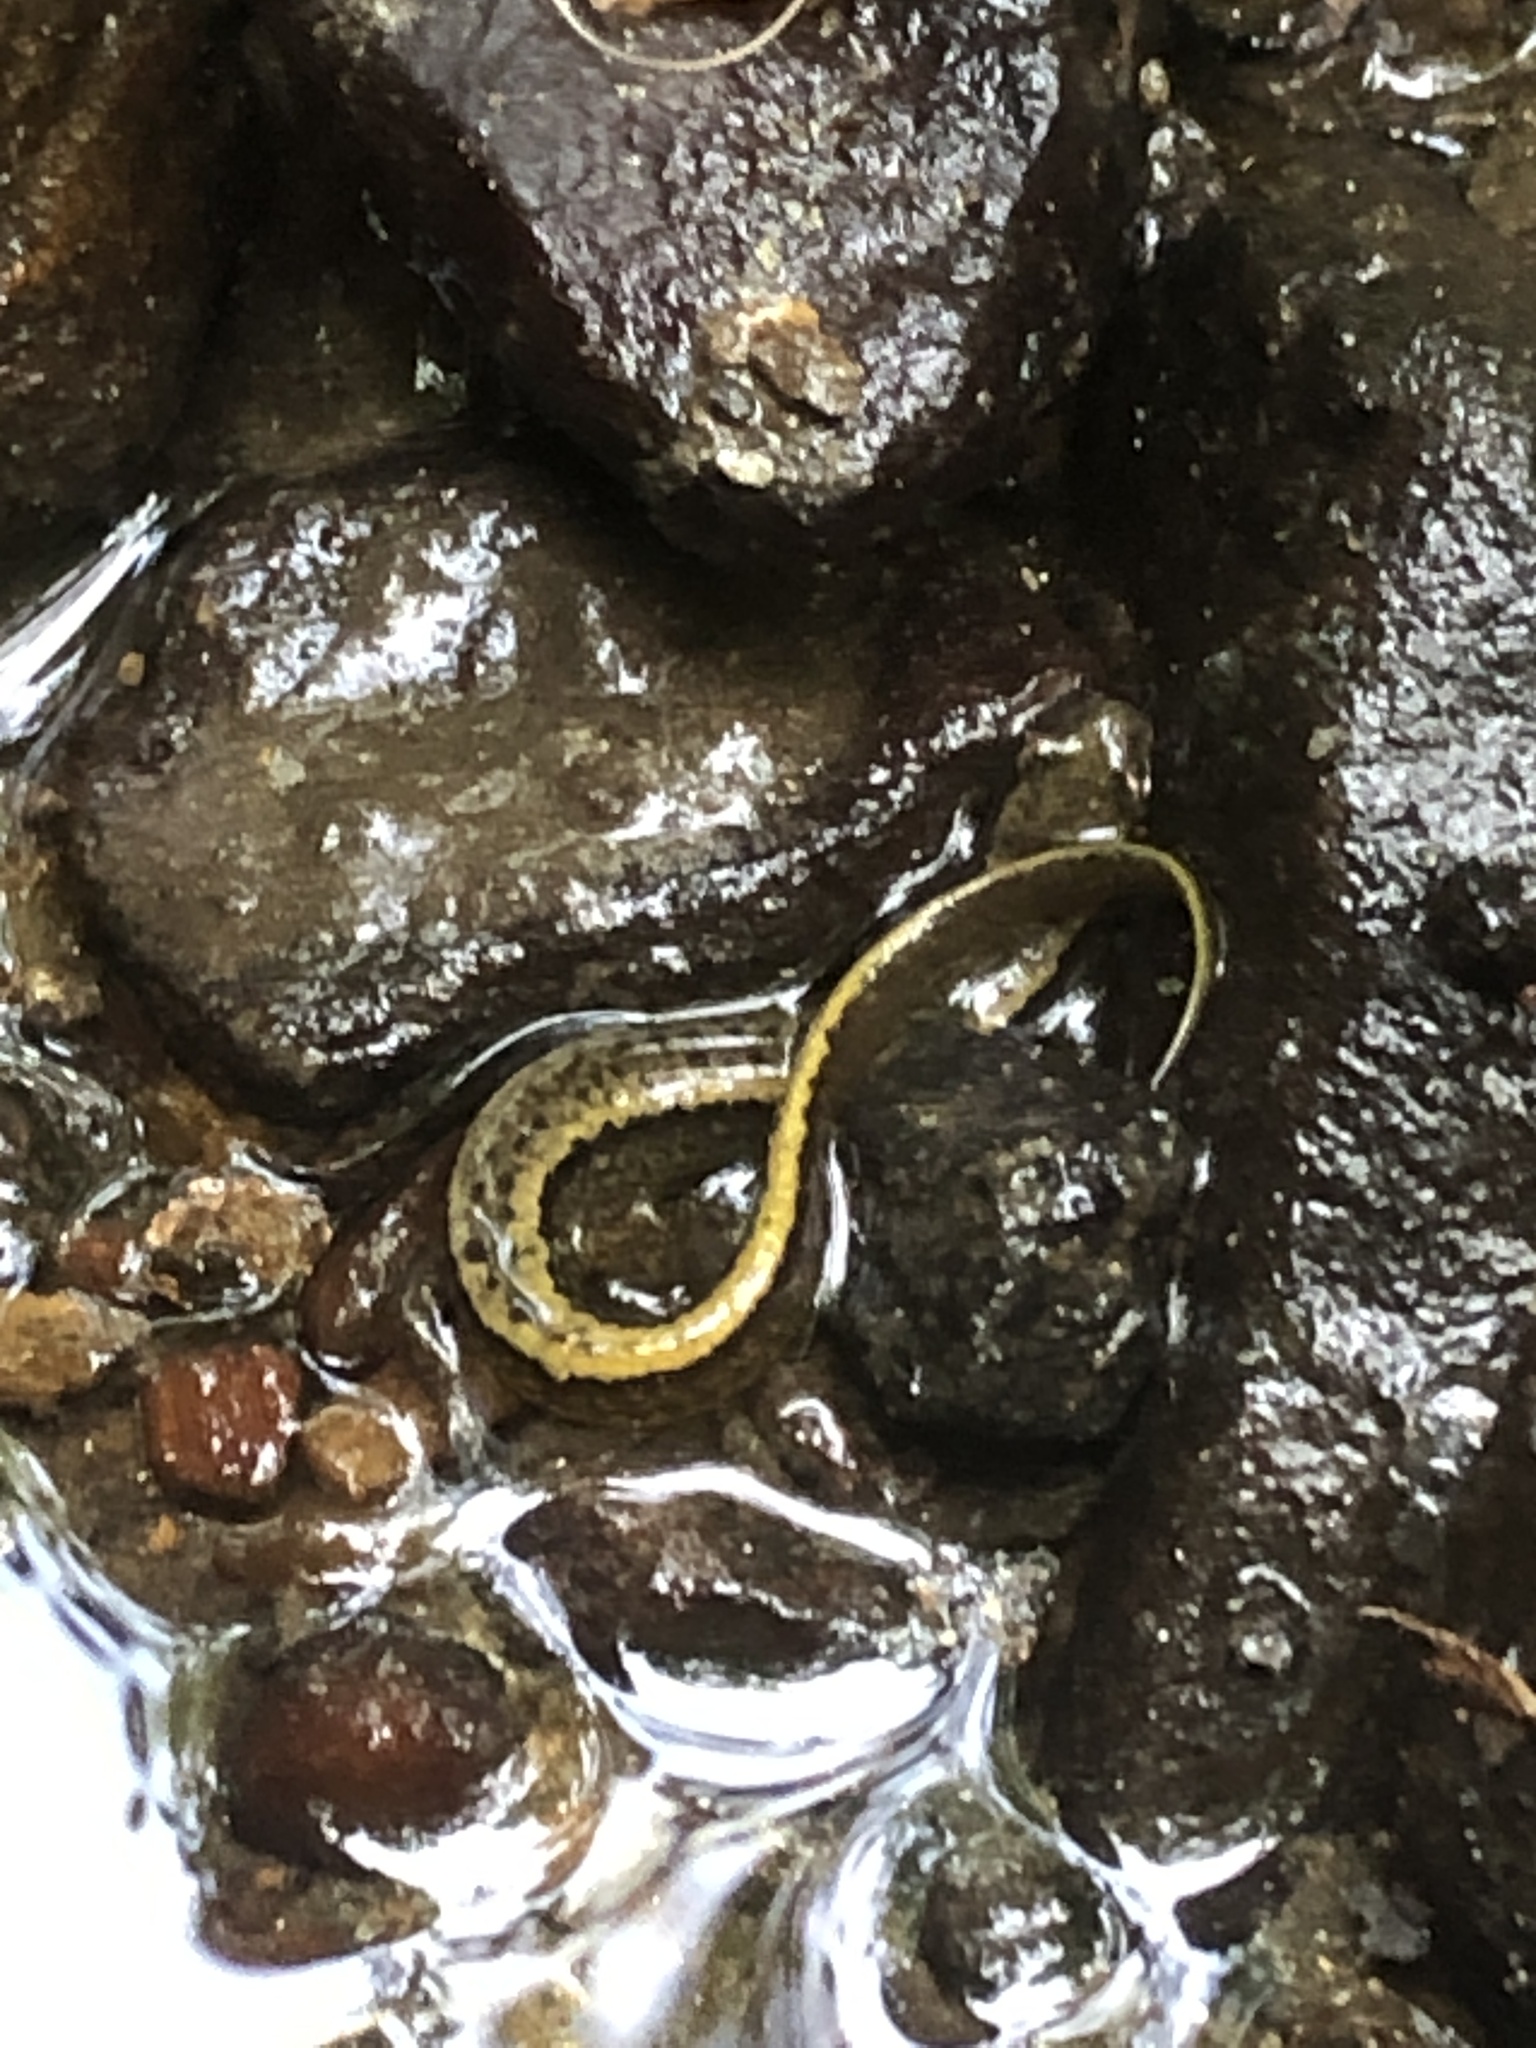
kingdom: Animalia
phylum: Chordata
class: Amphibia
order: Caudata
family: Plethodontidae
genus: Eurycea
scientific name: Eurycea bislineata
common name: Northern two-lined salamander
